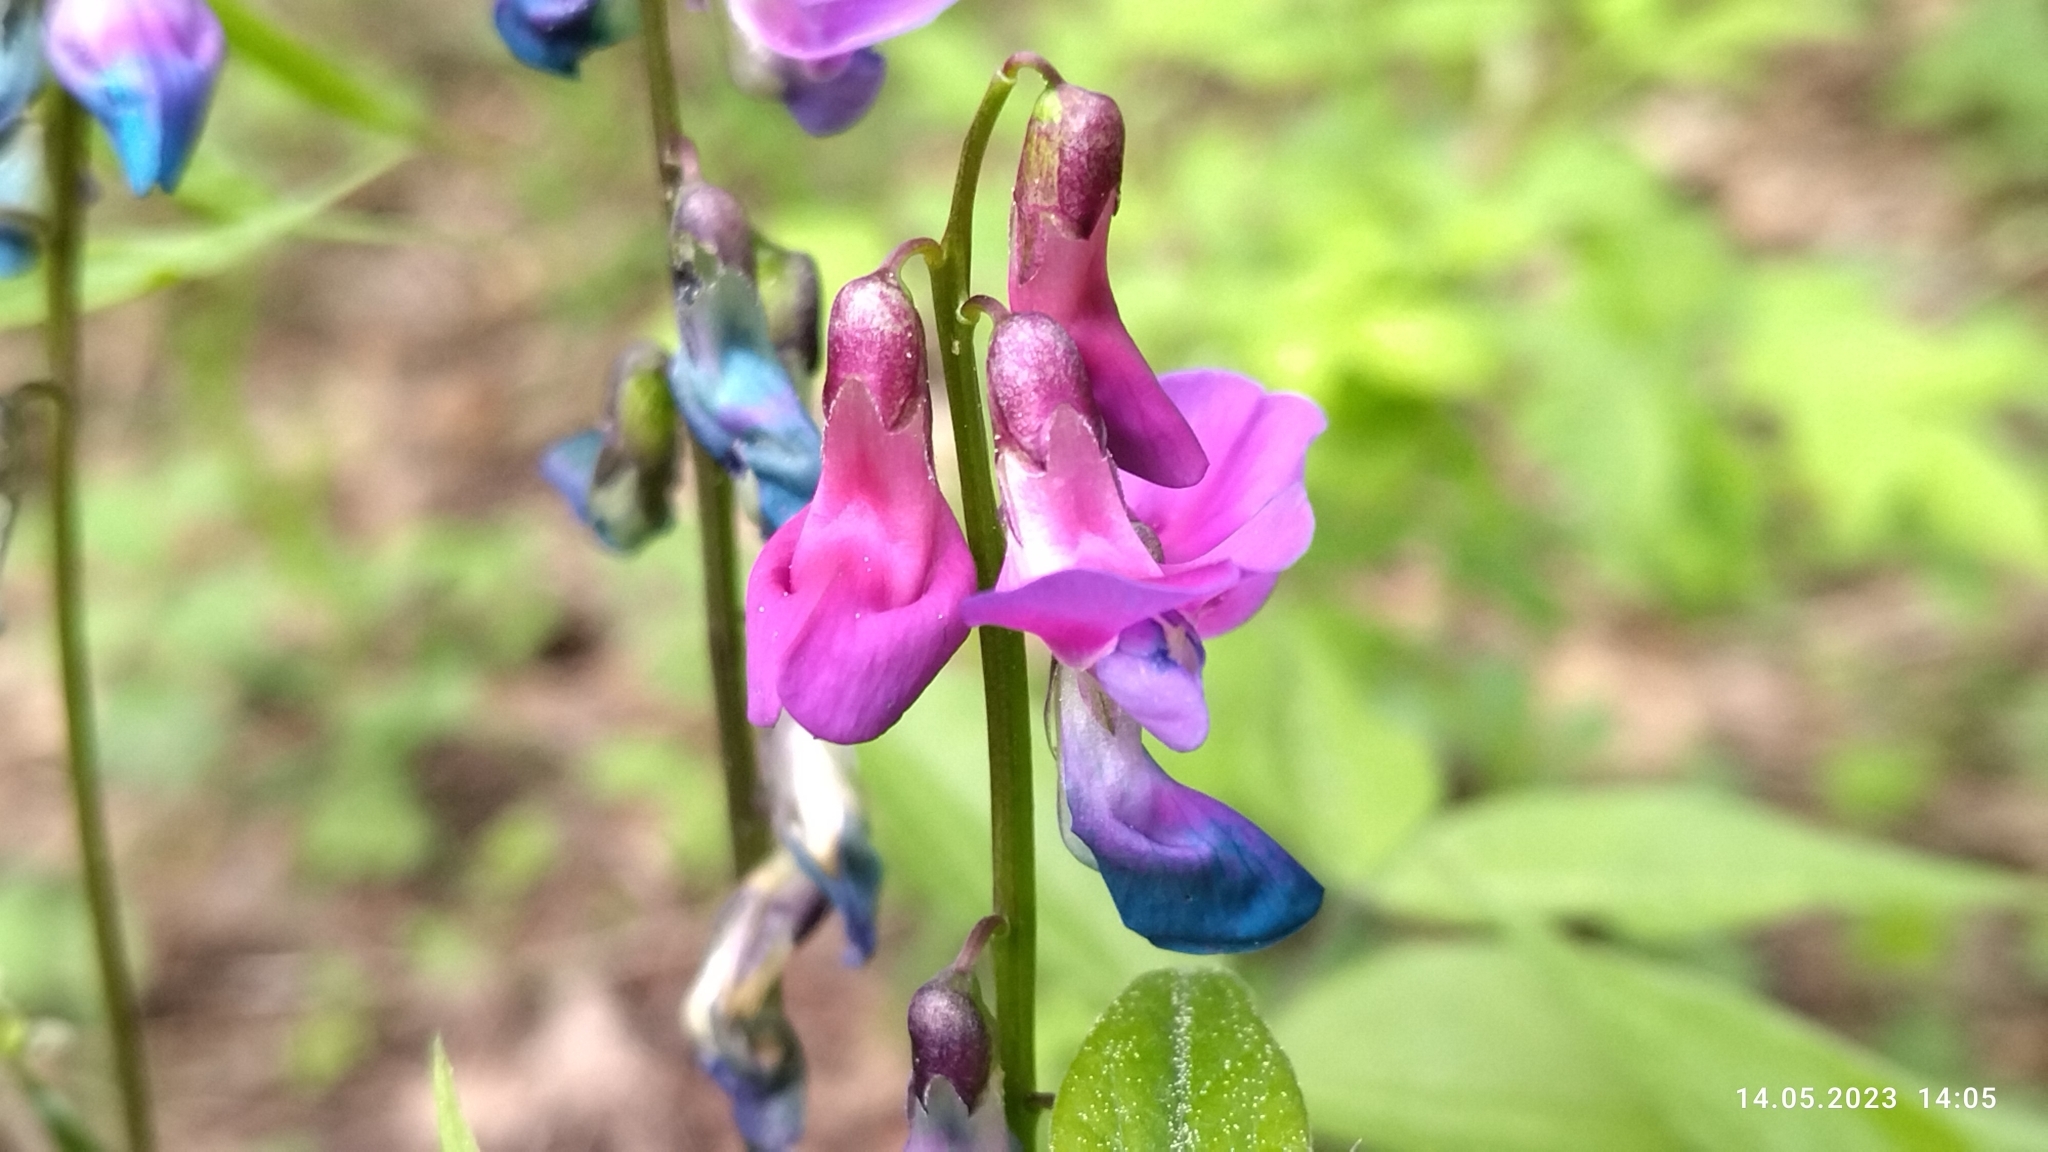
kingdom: Plantae
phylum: Tracheophyta
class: Magnoliopsida
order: Fabales
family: Fabaceae
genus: Lathyrus
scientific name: Lathyrus vernus
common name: Spring pea
